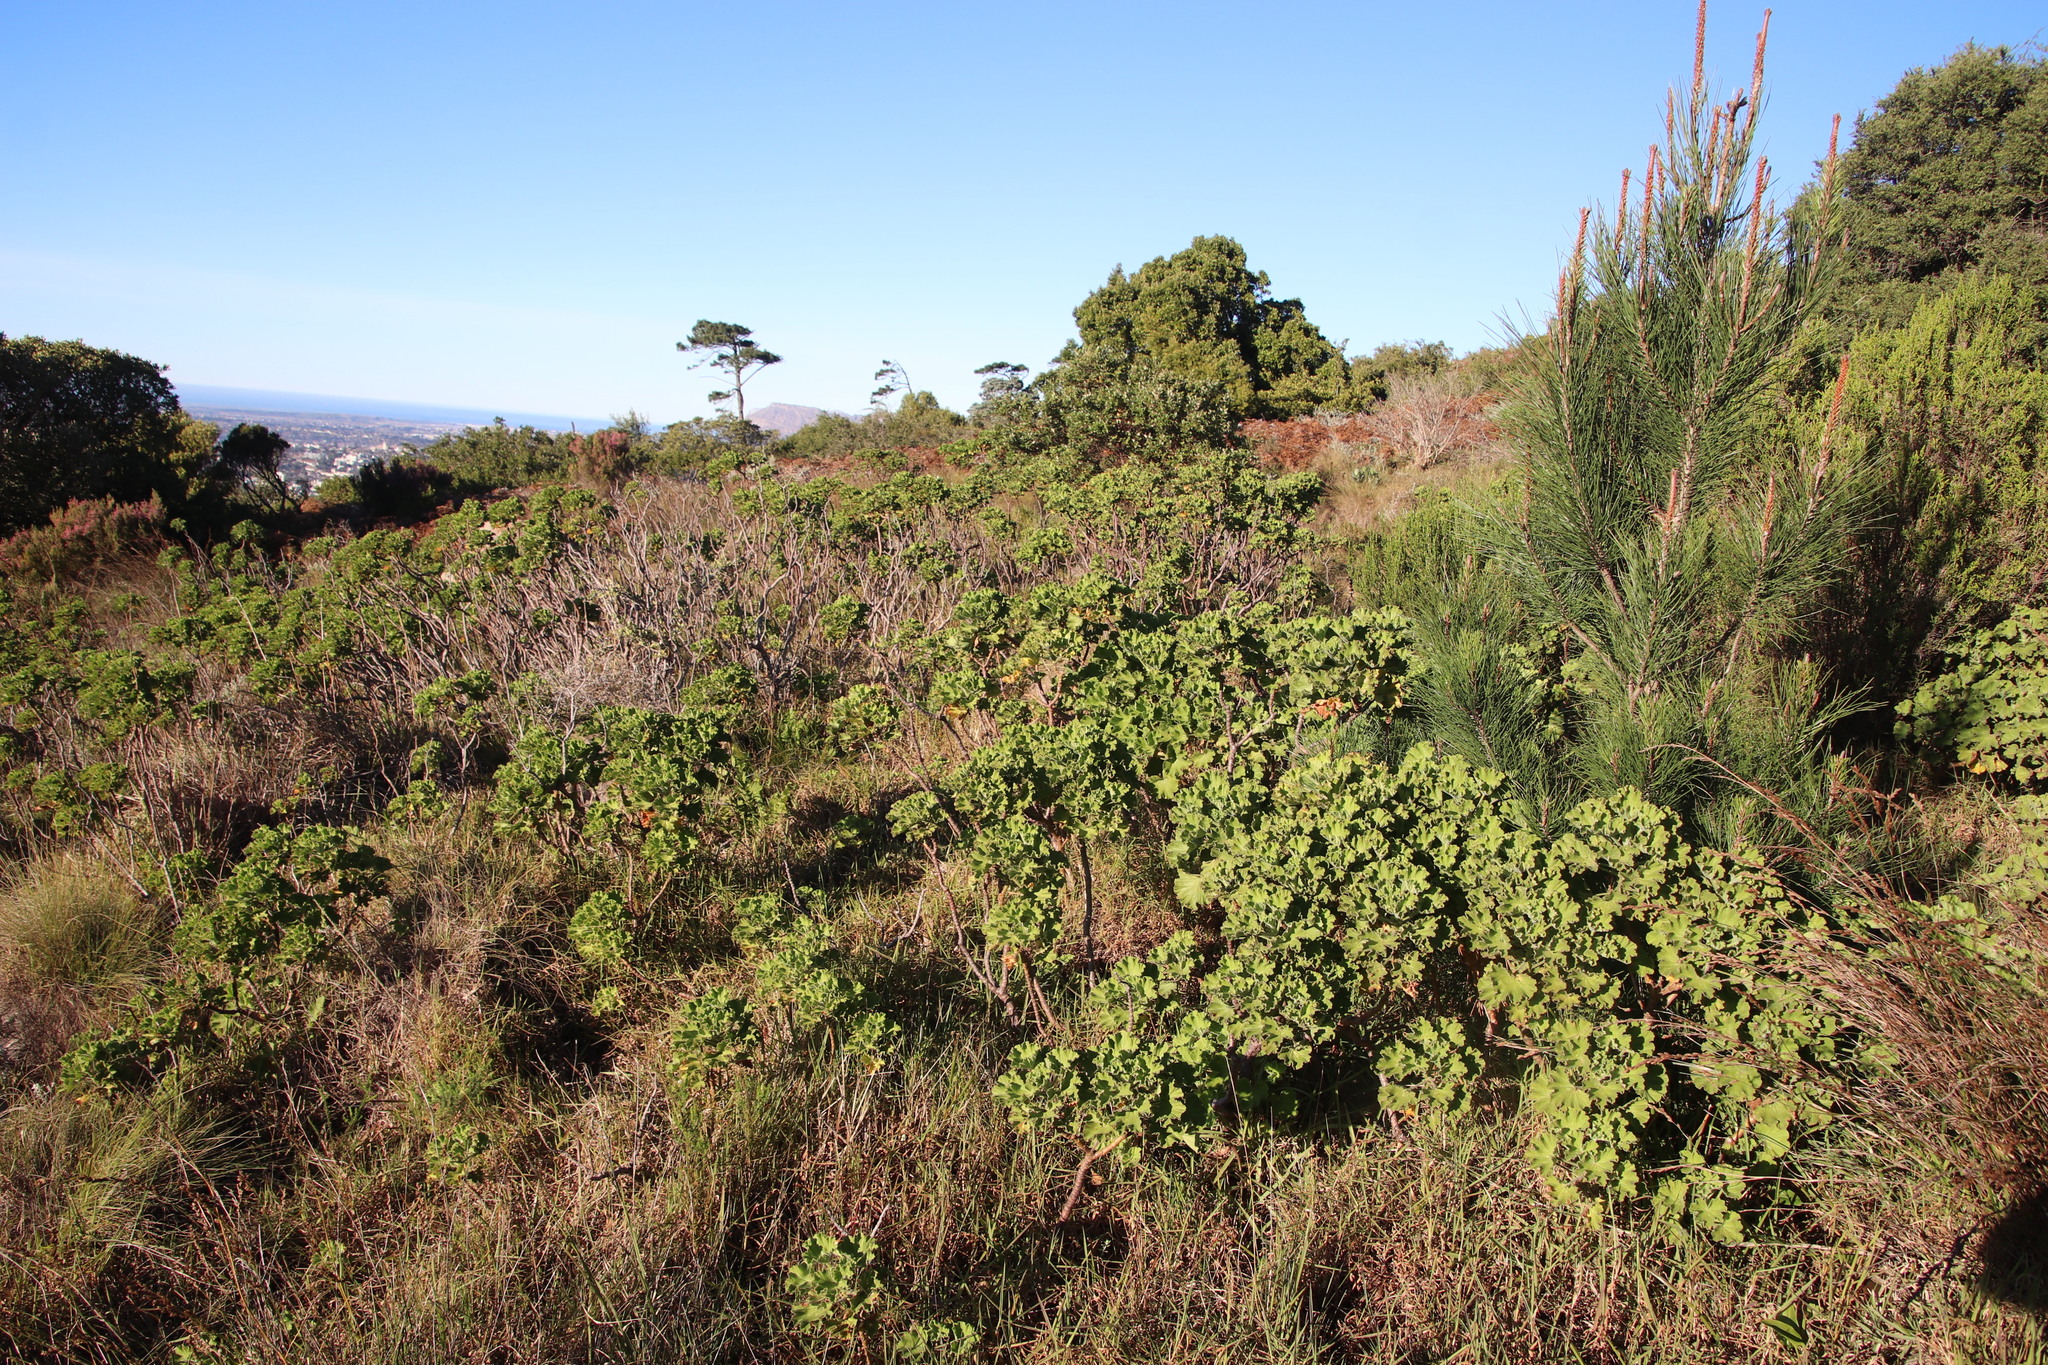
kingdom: Plantae
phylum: Tracheophyta
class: Magnoliopsida
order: Geraniales
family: Geraniaceae
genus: Pelargonium
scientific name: Pelargonium cucullatum
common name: Tree pelargonium
